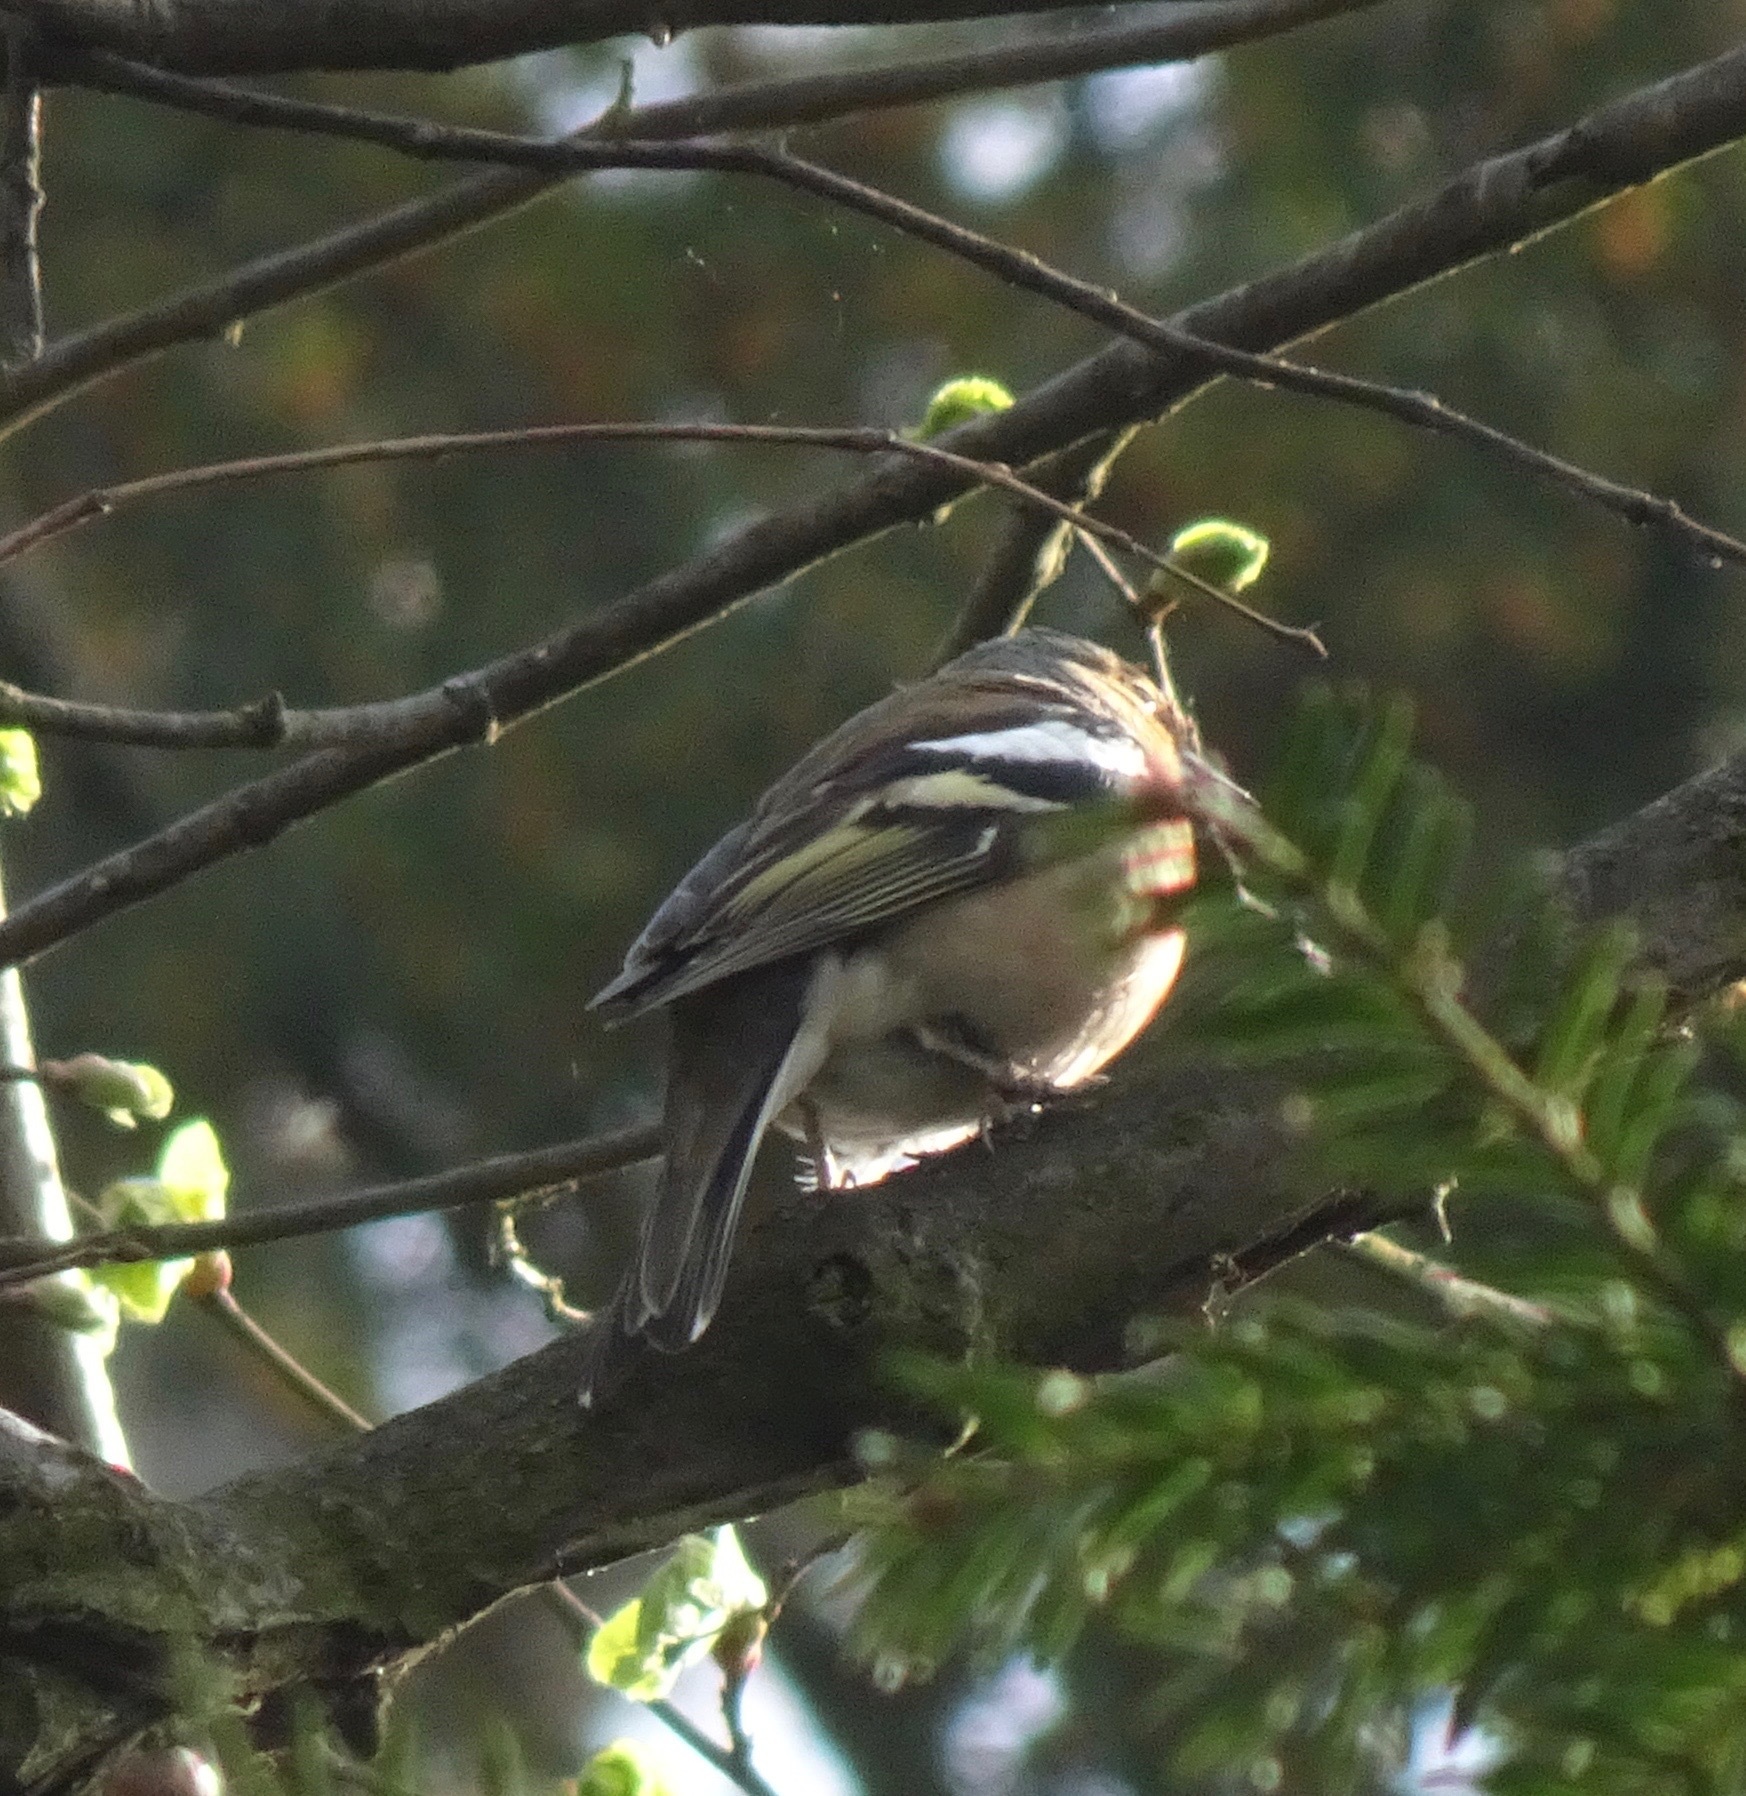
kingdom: Animalia
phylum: Chordata
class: Aves
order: Passeriformes
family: Fringillidae
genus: Fringilla
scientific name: Fringilla coelebs
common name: Common chaffinch
